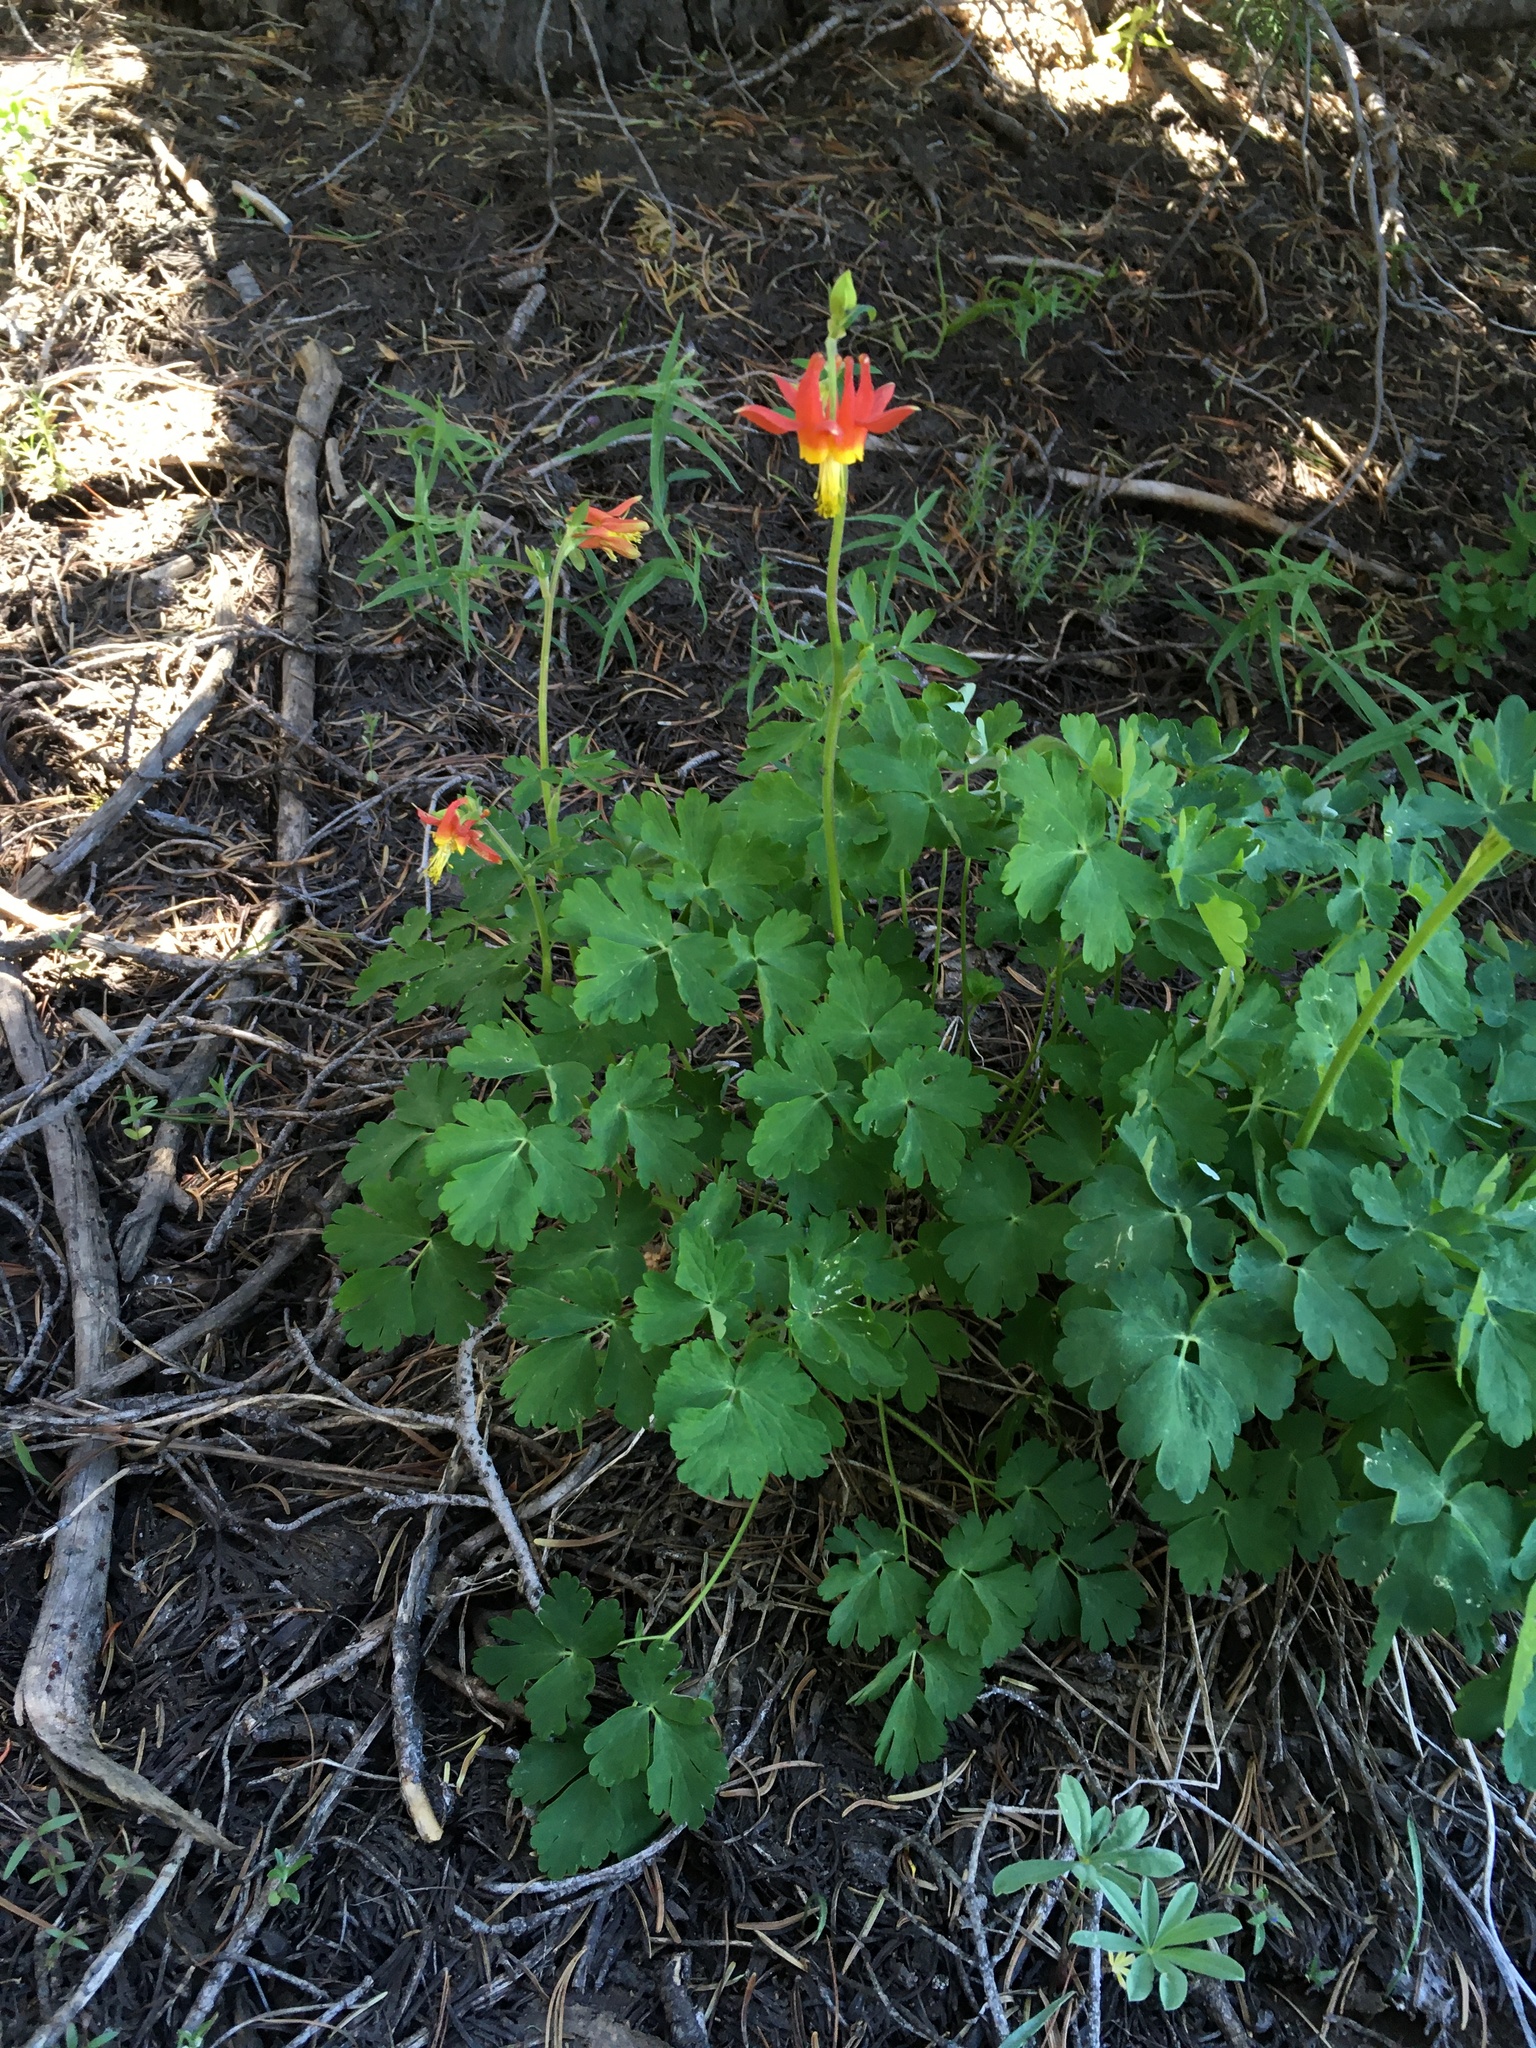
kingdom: Plantae
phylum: Tracheophyta
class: Magnoliopsida
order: Ranunculales
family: Ranunculaceae
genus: Aquilegia
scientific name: Aquilegia formosa
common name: Sitka columbine
